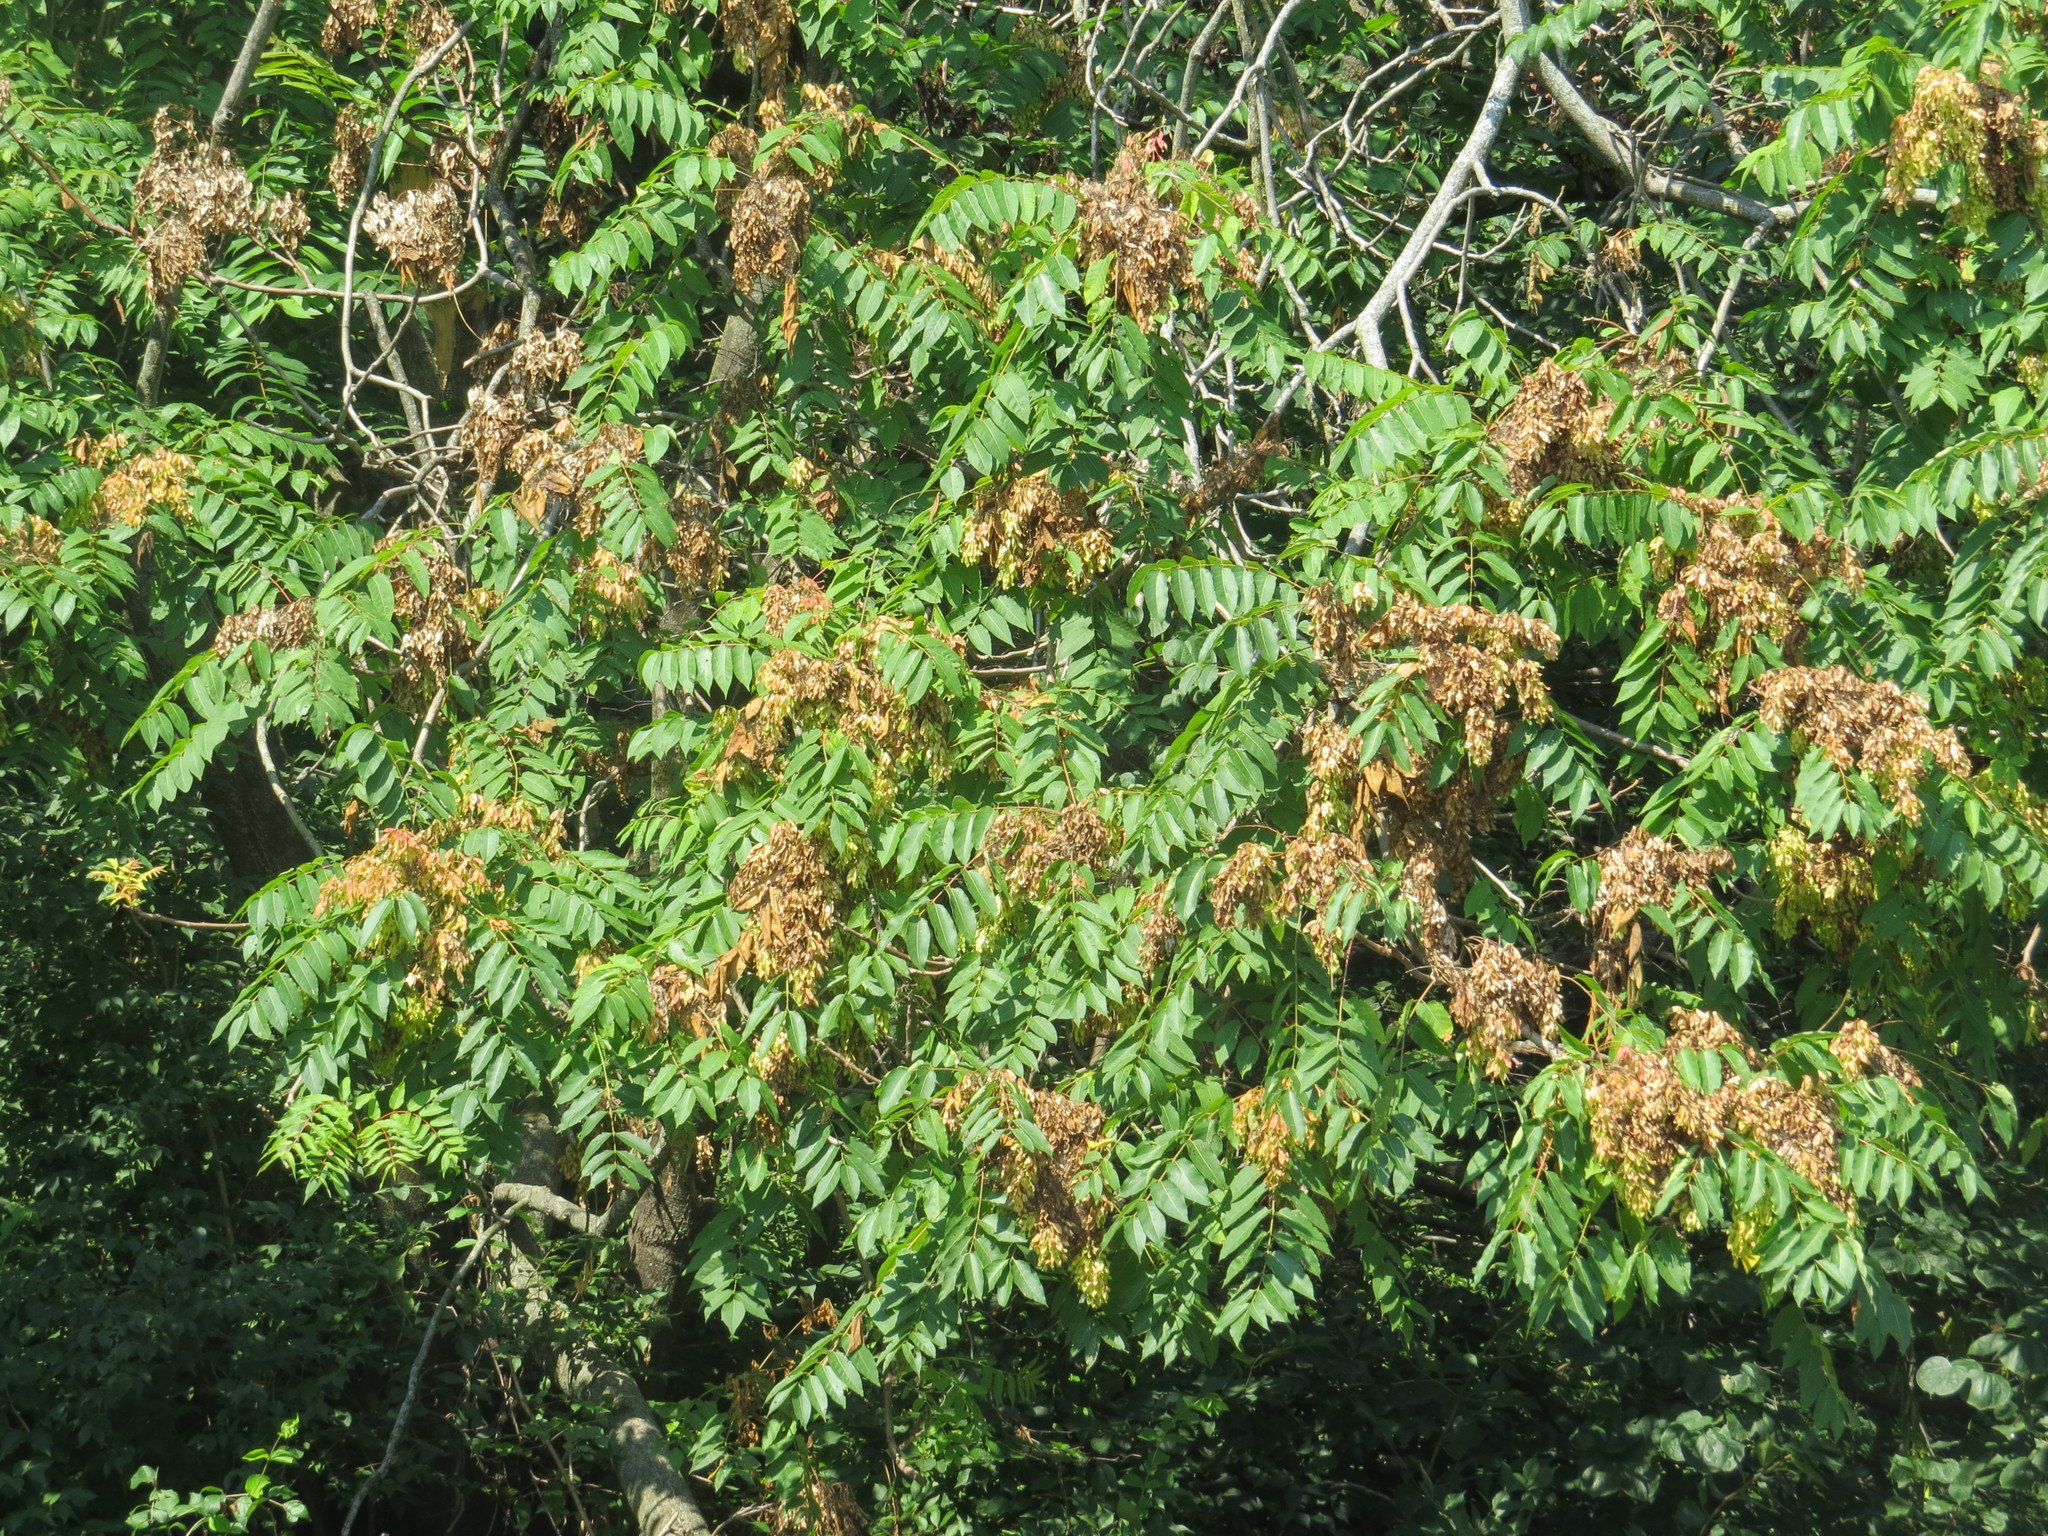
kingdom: Plantae
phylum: Tracheophyta
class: Magnoliopsida
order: Sapindales
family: Simaroubaceae
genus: Ailanthus
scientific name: Ailanthus altissima
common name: Tree-of-heaven
